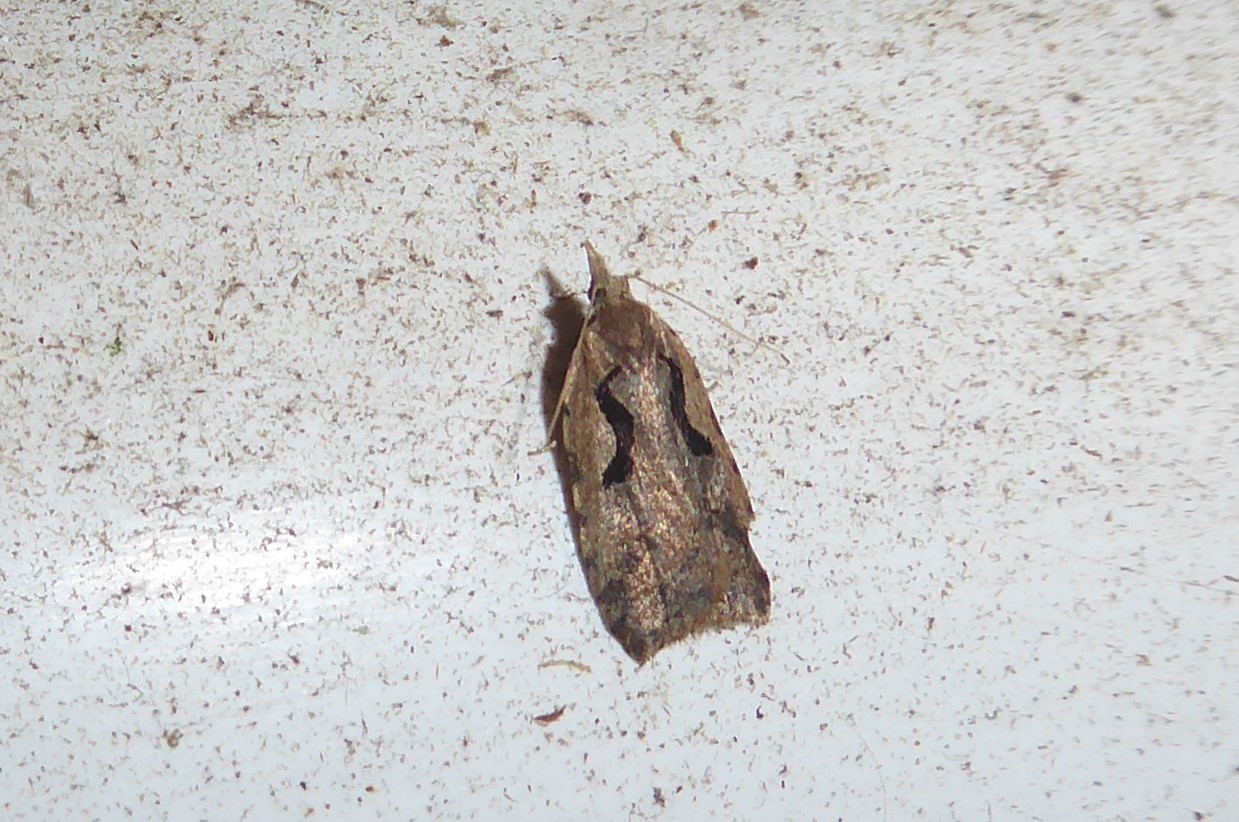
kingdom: Animalia
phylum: Arthropoda
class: Insecta
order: Lepidoptera
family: Tortricidae
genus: Cnephasia
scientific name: Cnephasia jactatana
